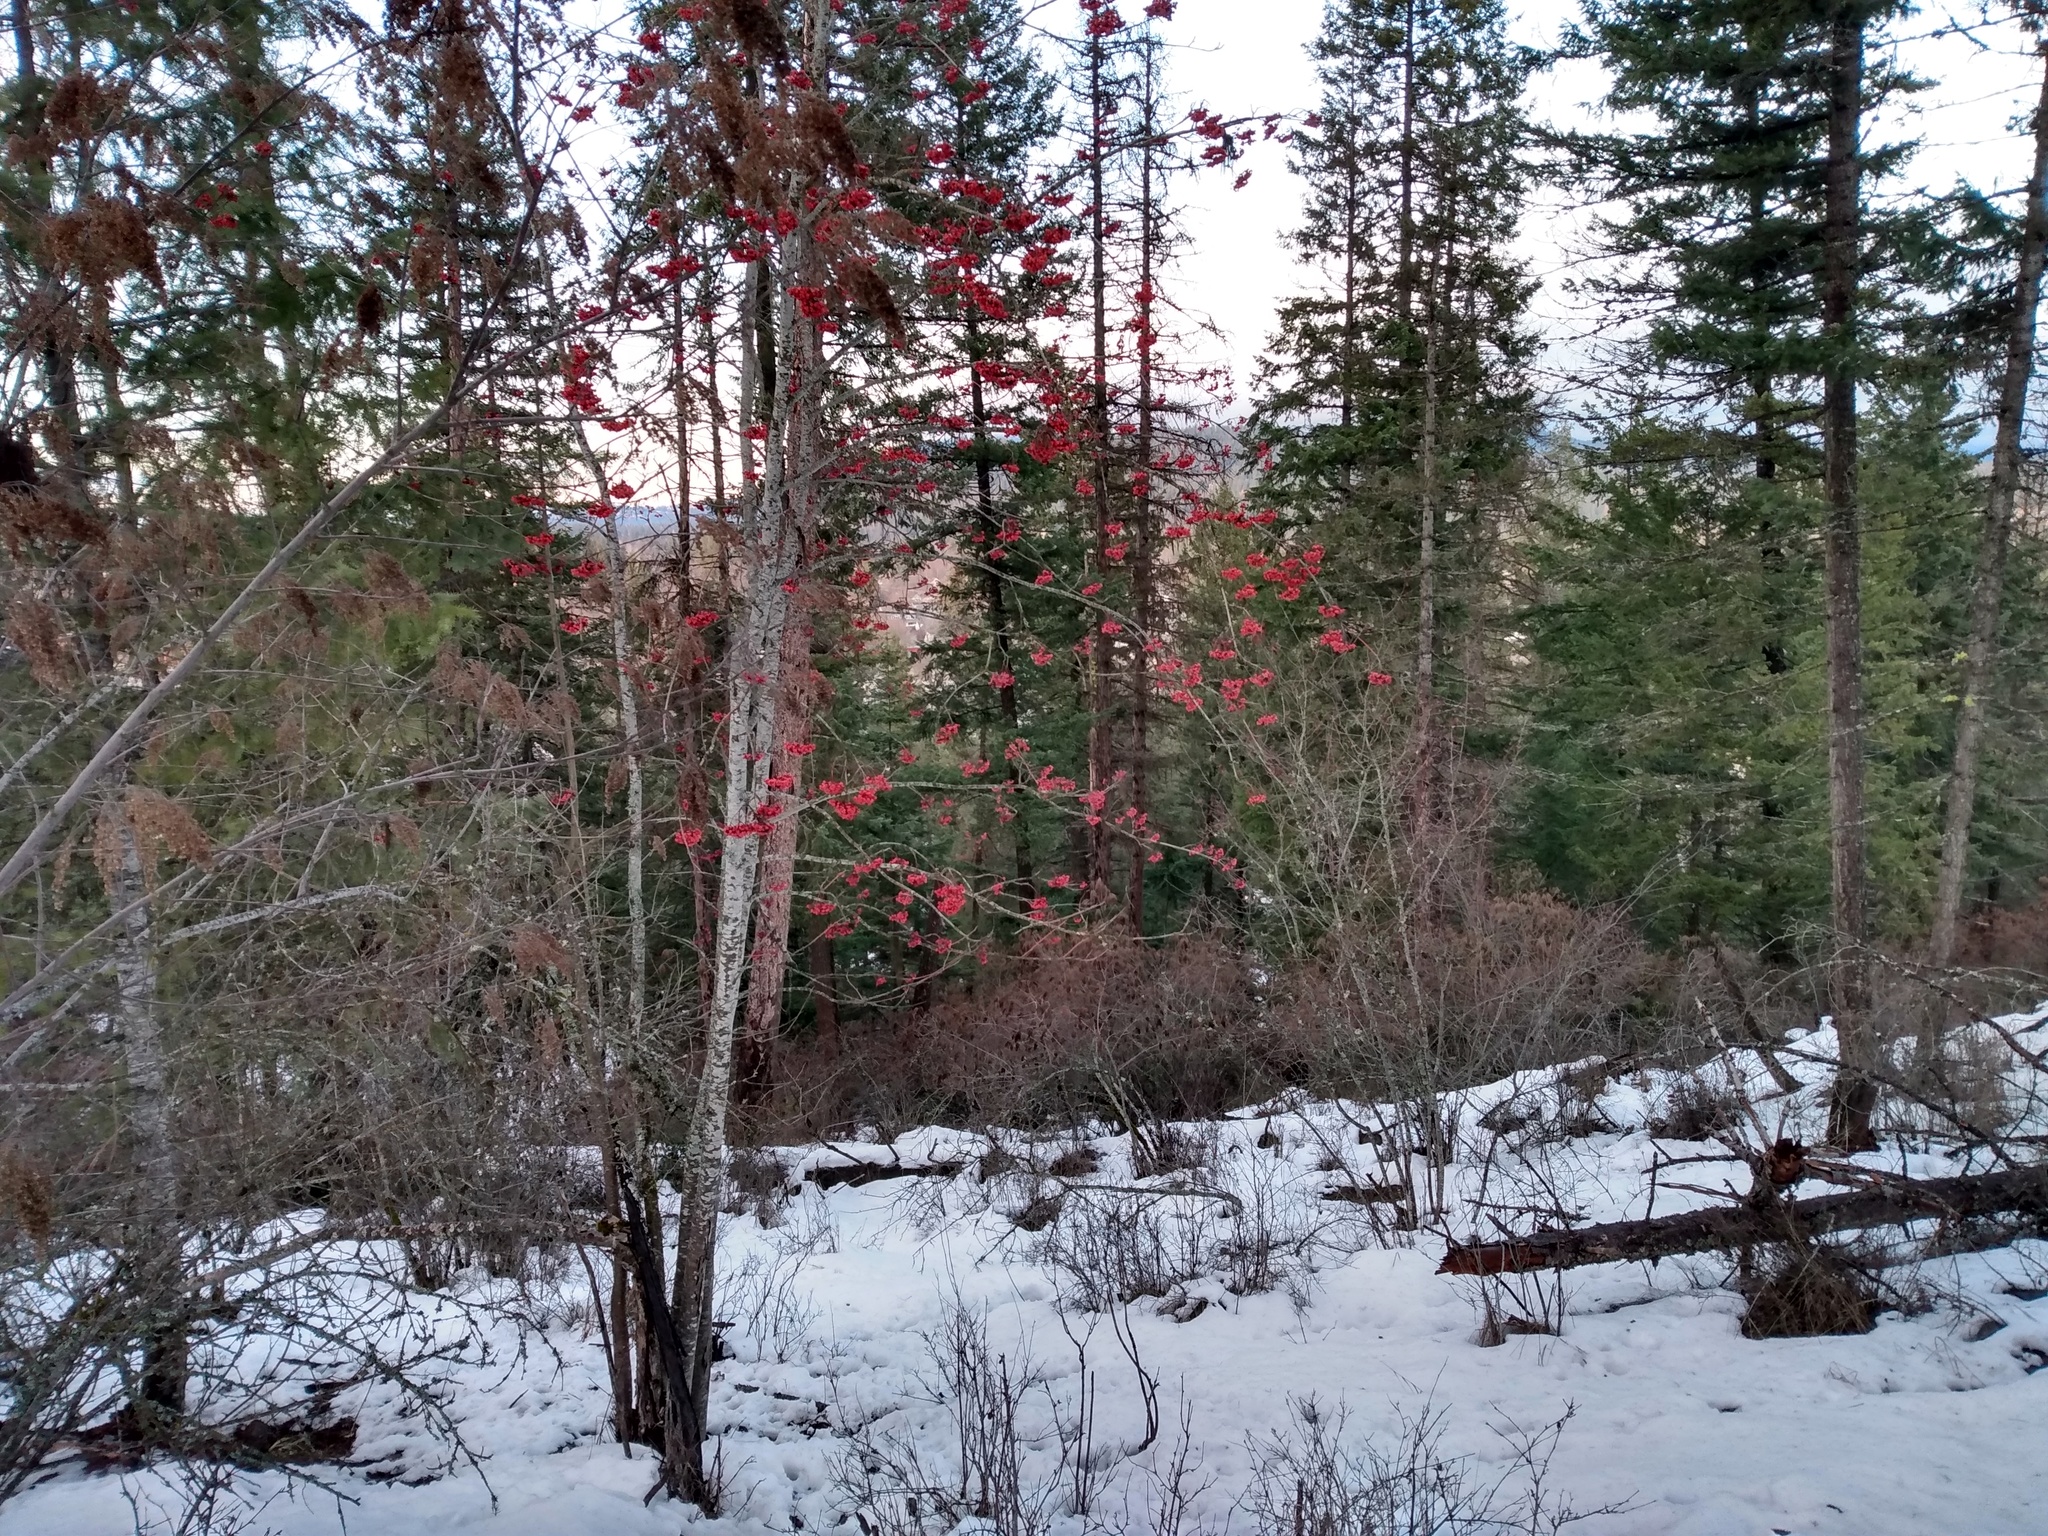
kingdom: Plantae
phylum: Tracheophyta
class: Magnoliopsida
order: Rosales
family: Rosaceae
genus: Sorbus
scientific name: Sorbus aucuparia
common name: Rowan
